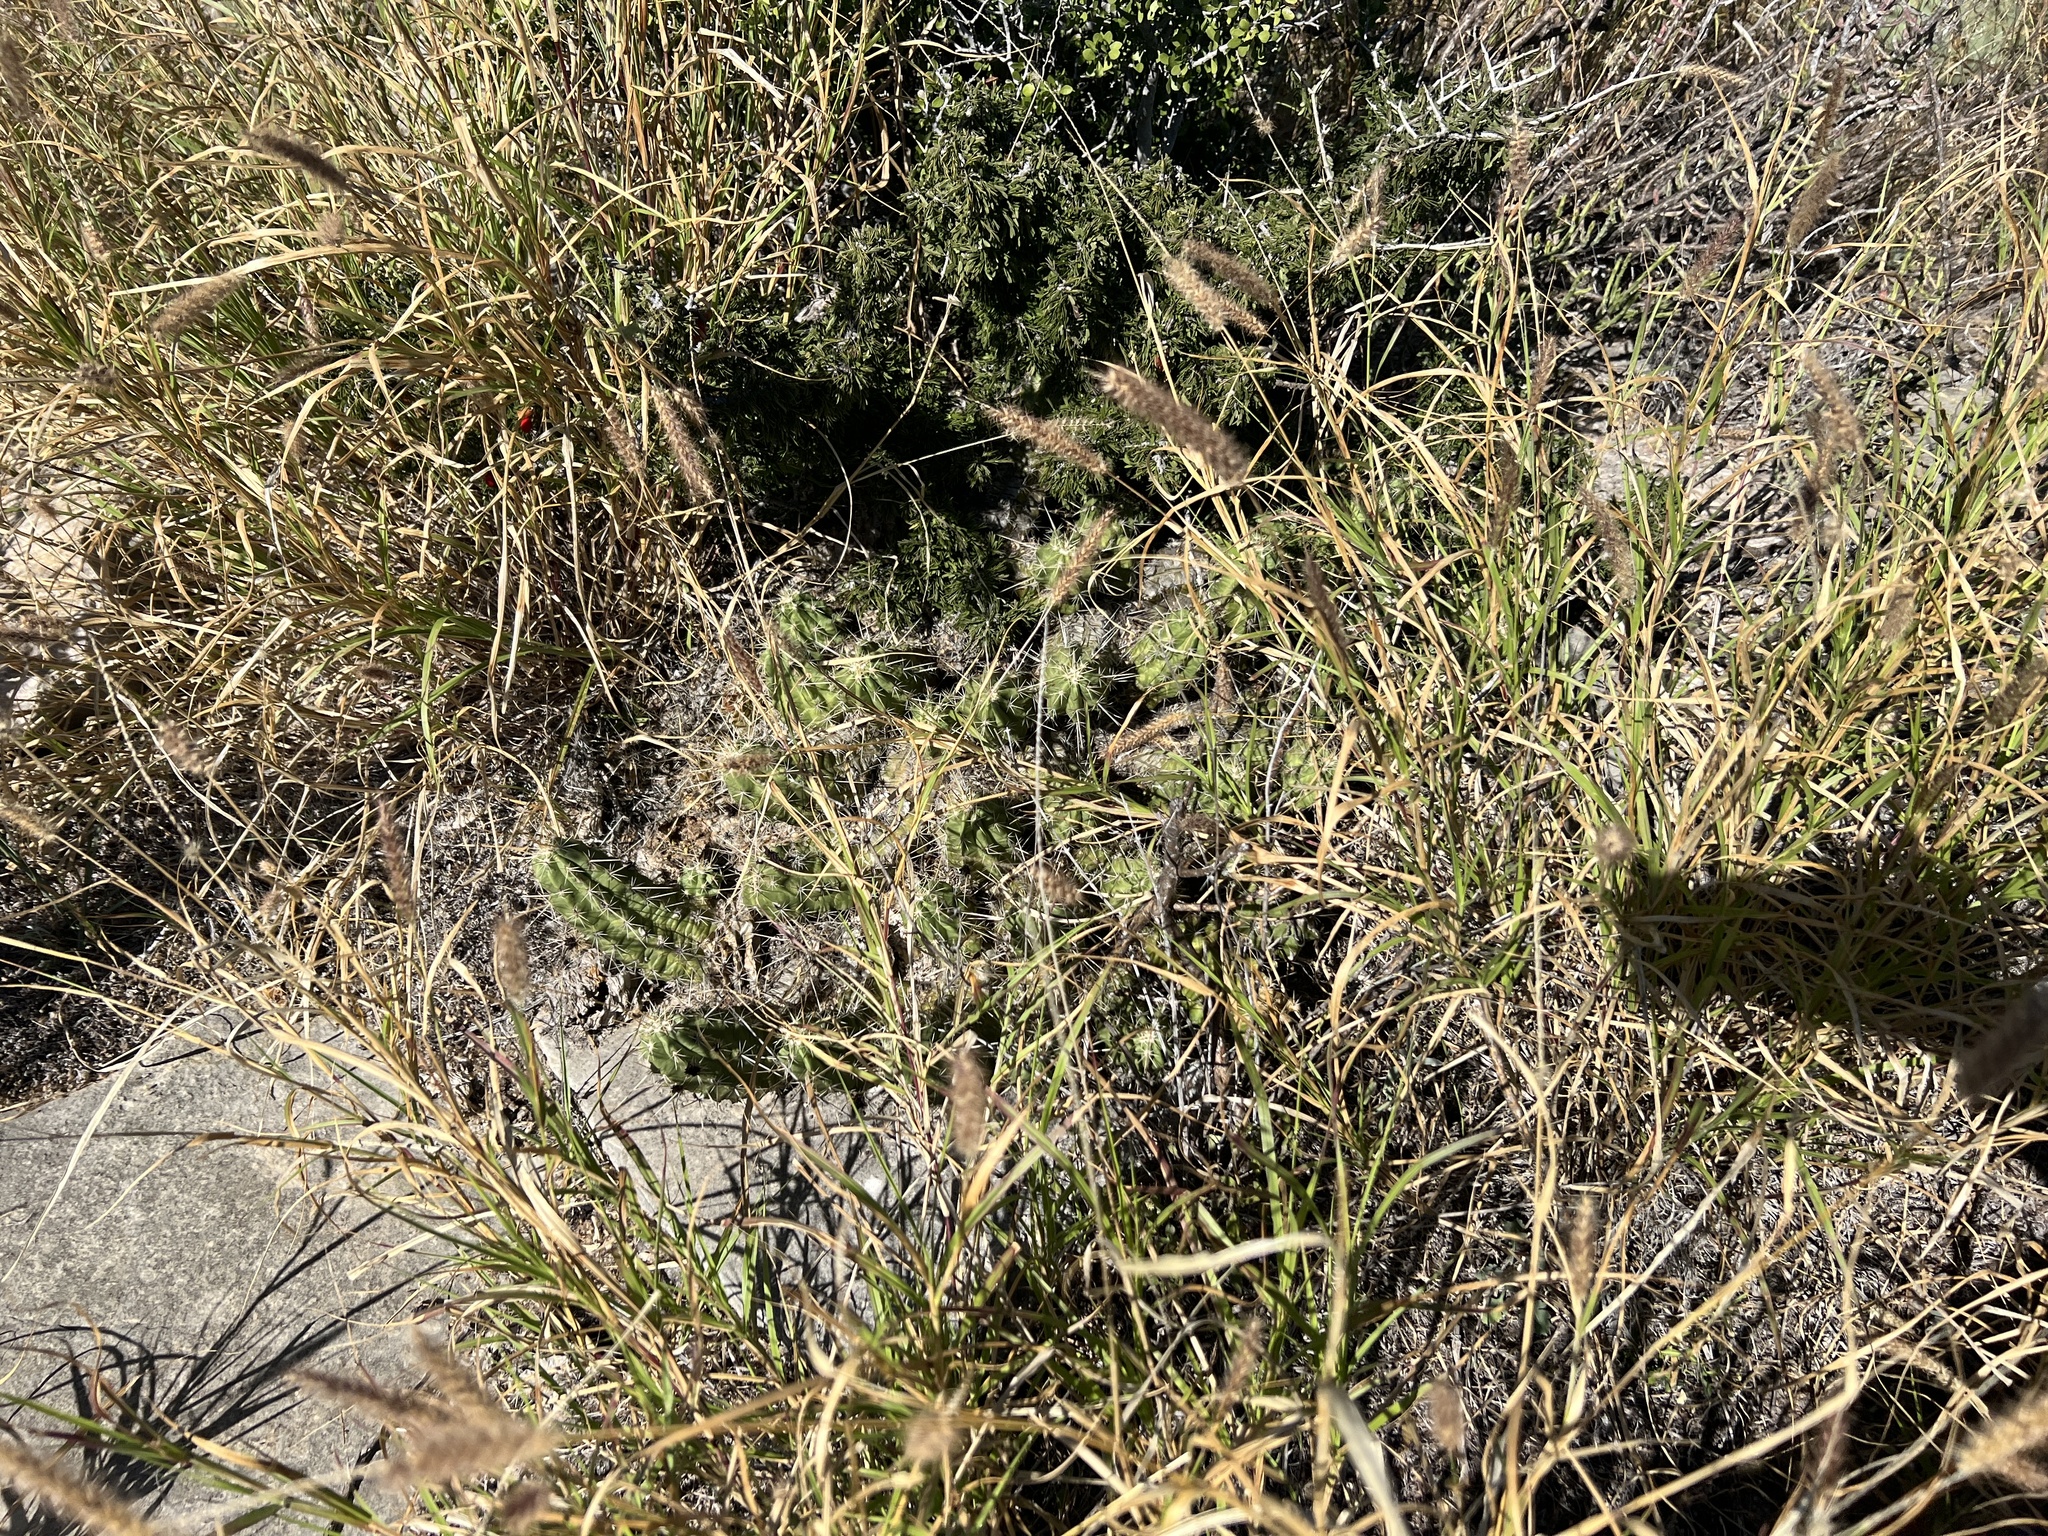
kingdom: Plantae
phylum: Tracheophyta
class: Magnoliopsida
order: Caryophyllales
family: Cactaceae
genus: Echinocereus
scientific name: Echinocereus enneacanthus
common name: Pitaya
